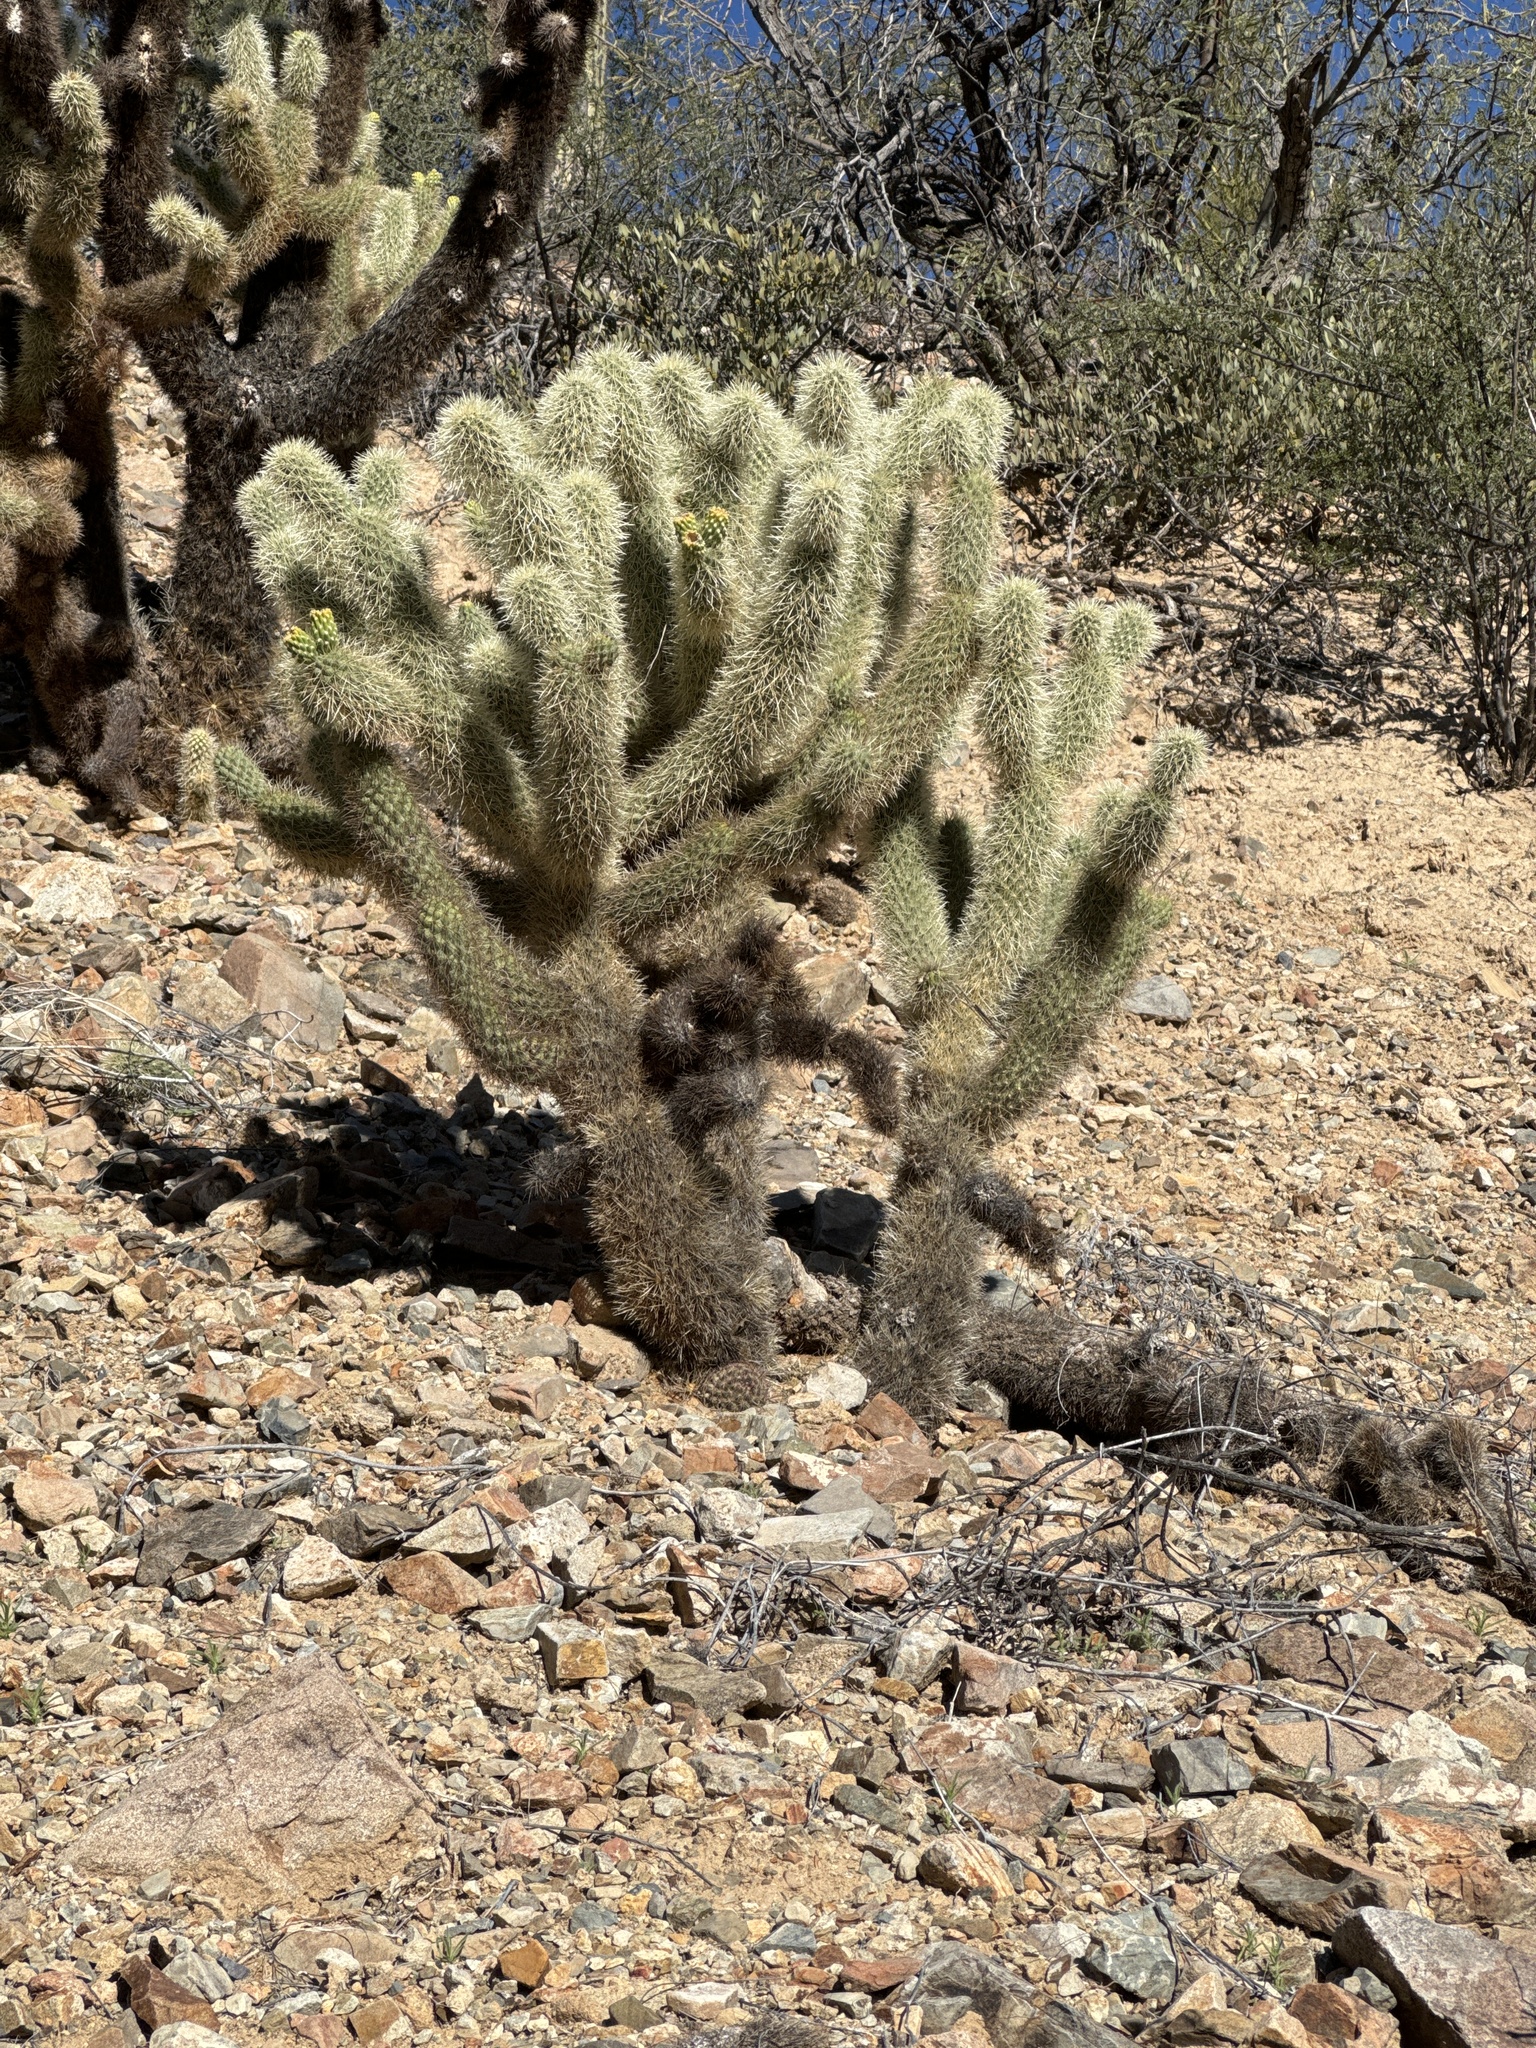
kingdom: Plantae
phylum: Tracheophyta
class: Magnoliopsida
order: Caryophyllales
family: Cactaceae
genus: Cylindropuntia
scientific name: Cylindropuntia fosbergii
